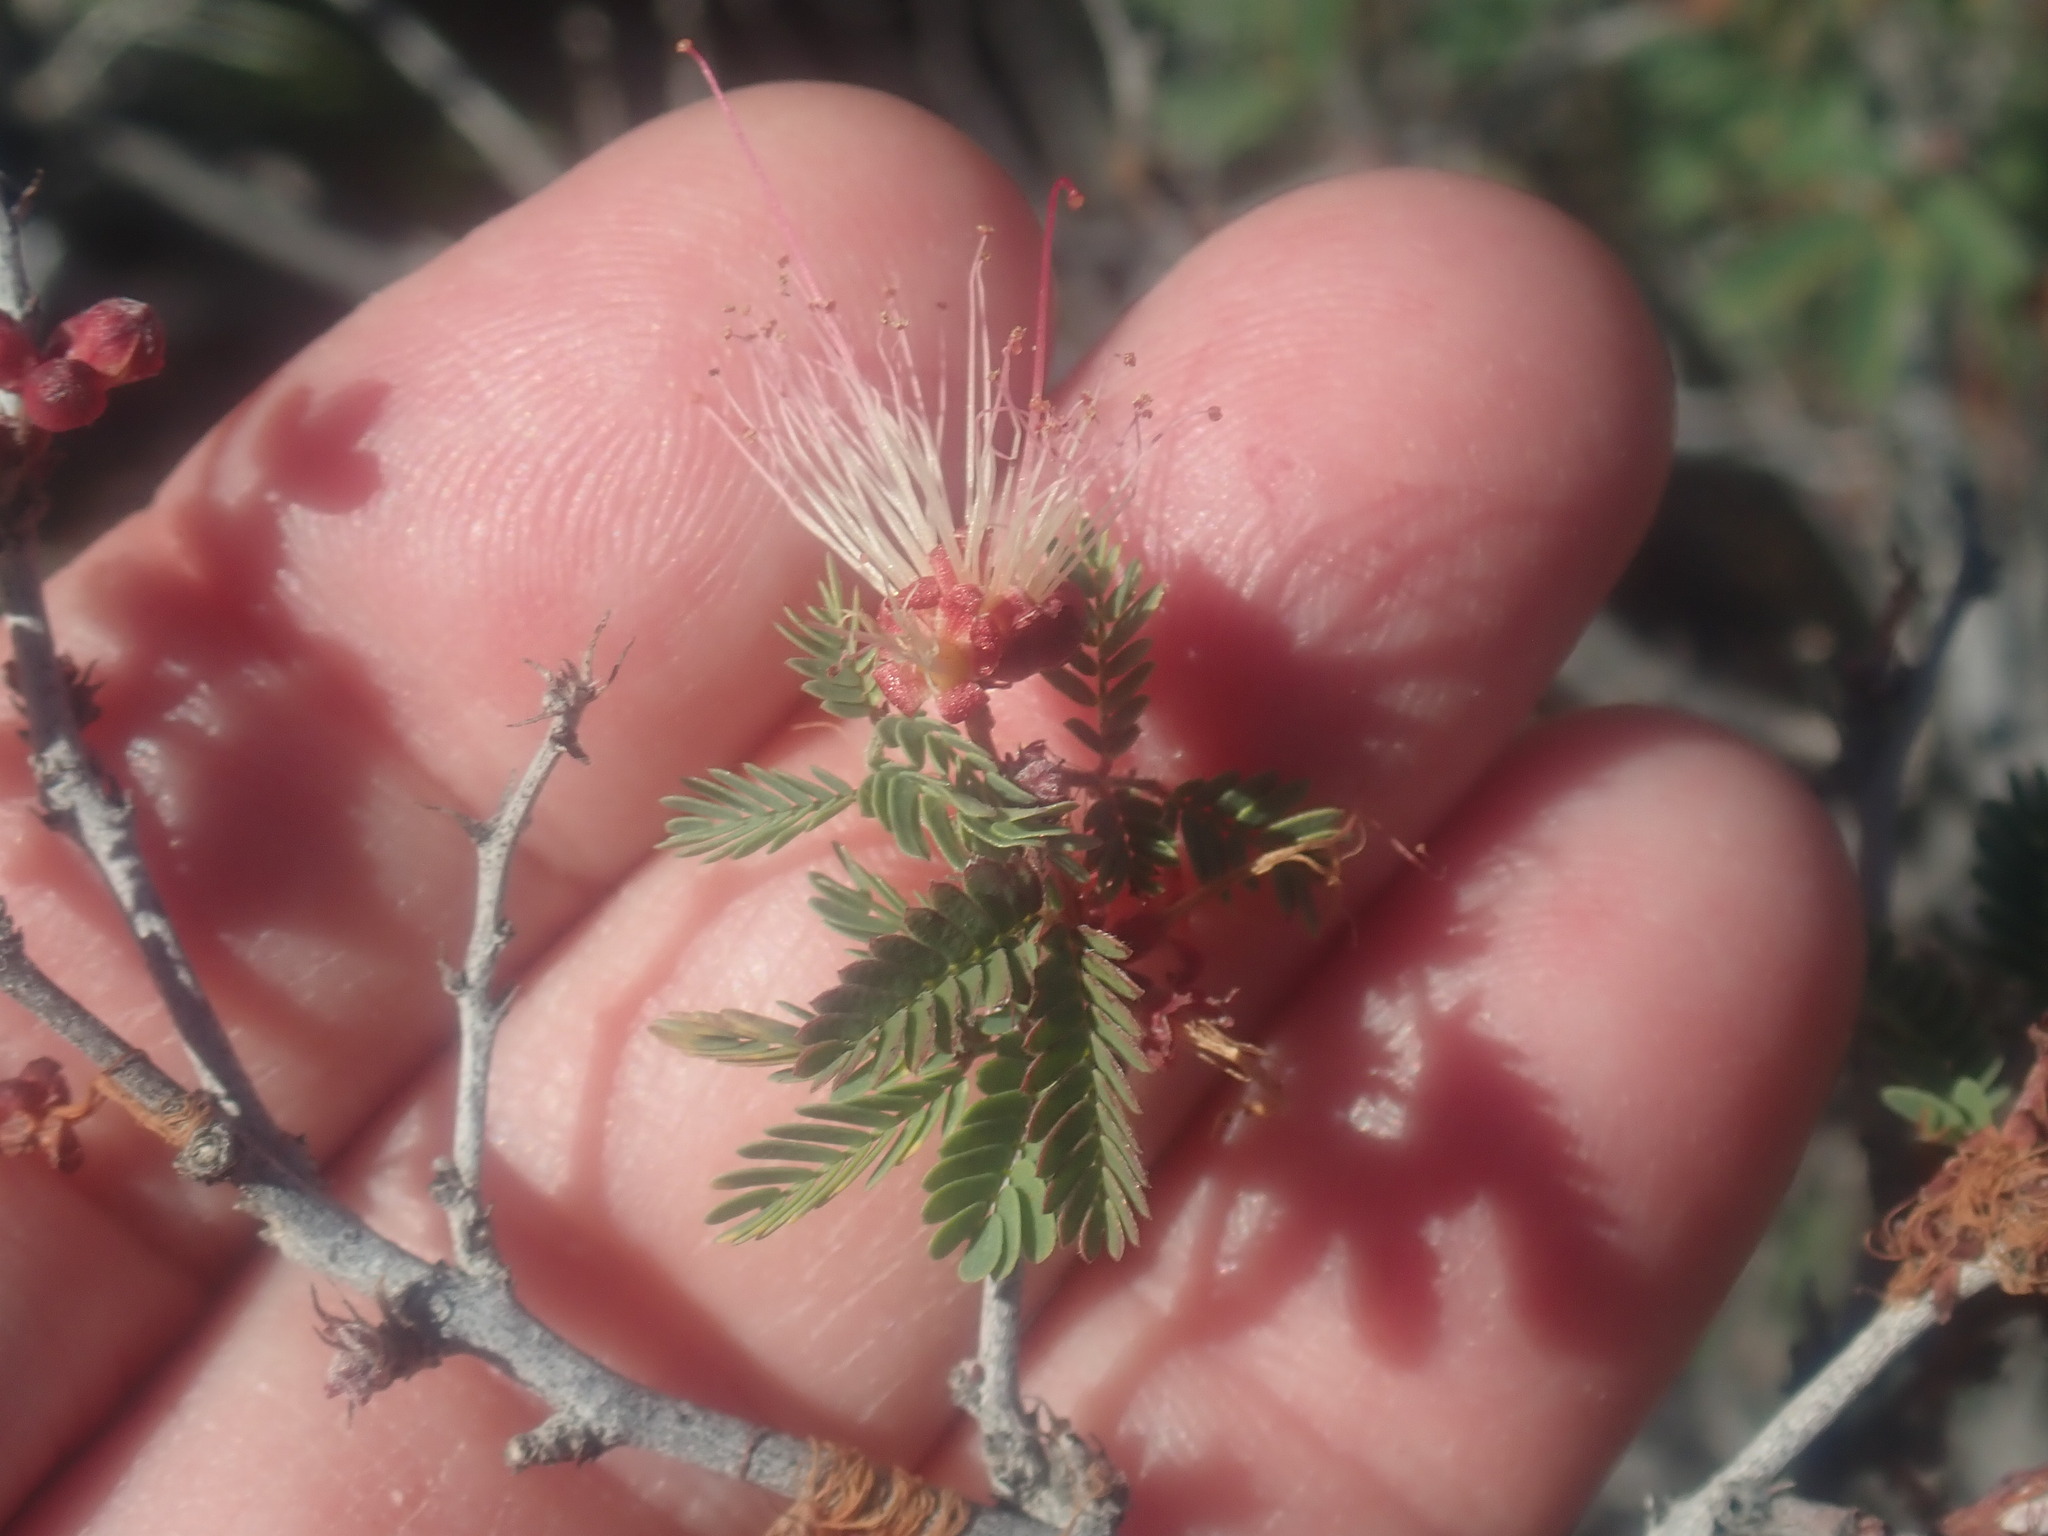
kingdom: Plantae
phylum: Tracheophyta
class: Magnoliopsida
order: Fabales
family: Fabaceae
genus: Calliandra
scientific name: Calliandra eriophylla
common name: Fairy-duster
